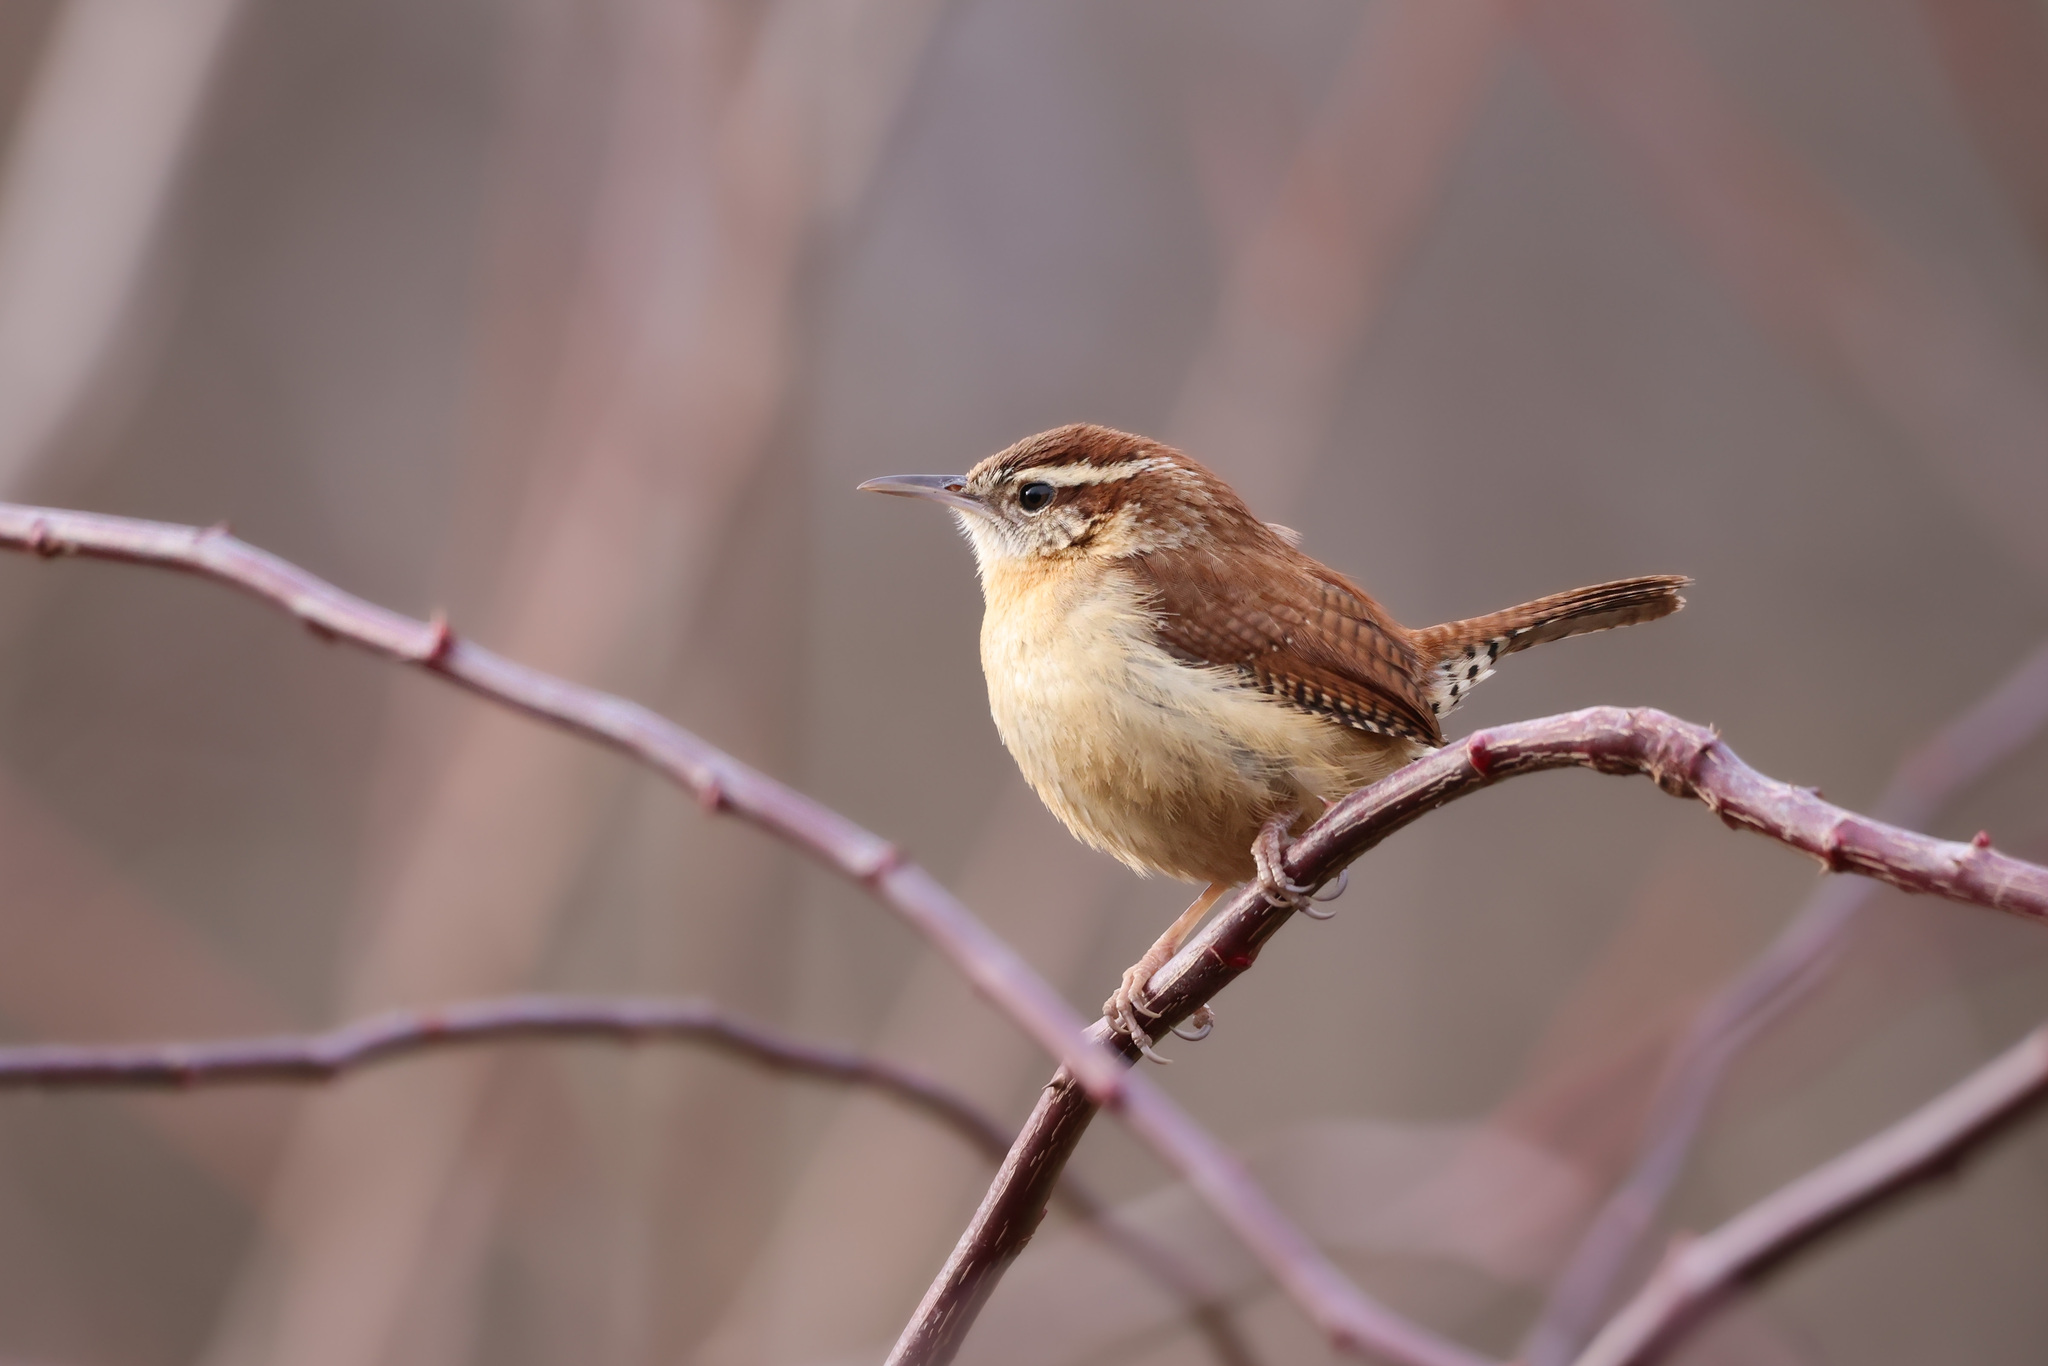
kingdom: Animalia
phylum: Chordata
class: Aves
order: Passeriformes
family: Troglodytidae
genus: Thryothorus
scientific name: Thryothorus ludovicianus
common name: Carolina wren
